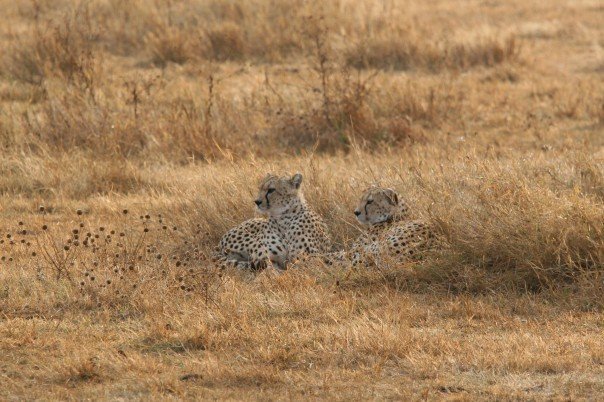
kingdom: Animalia
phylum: Chordata
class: Mammalia
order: Carnivora
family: Felidae
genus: Acinonyx
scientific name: Acinonyx jubatus
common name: Cheetah
